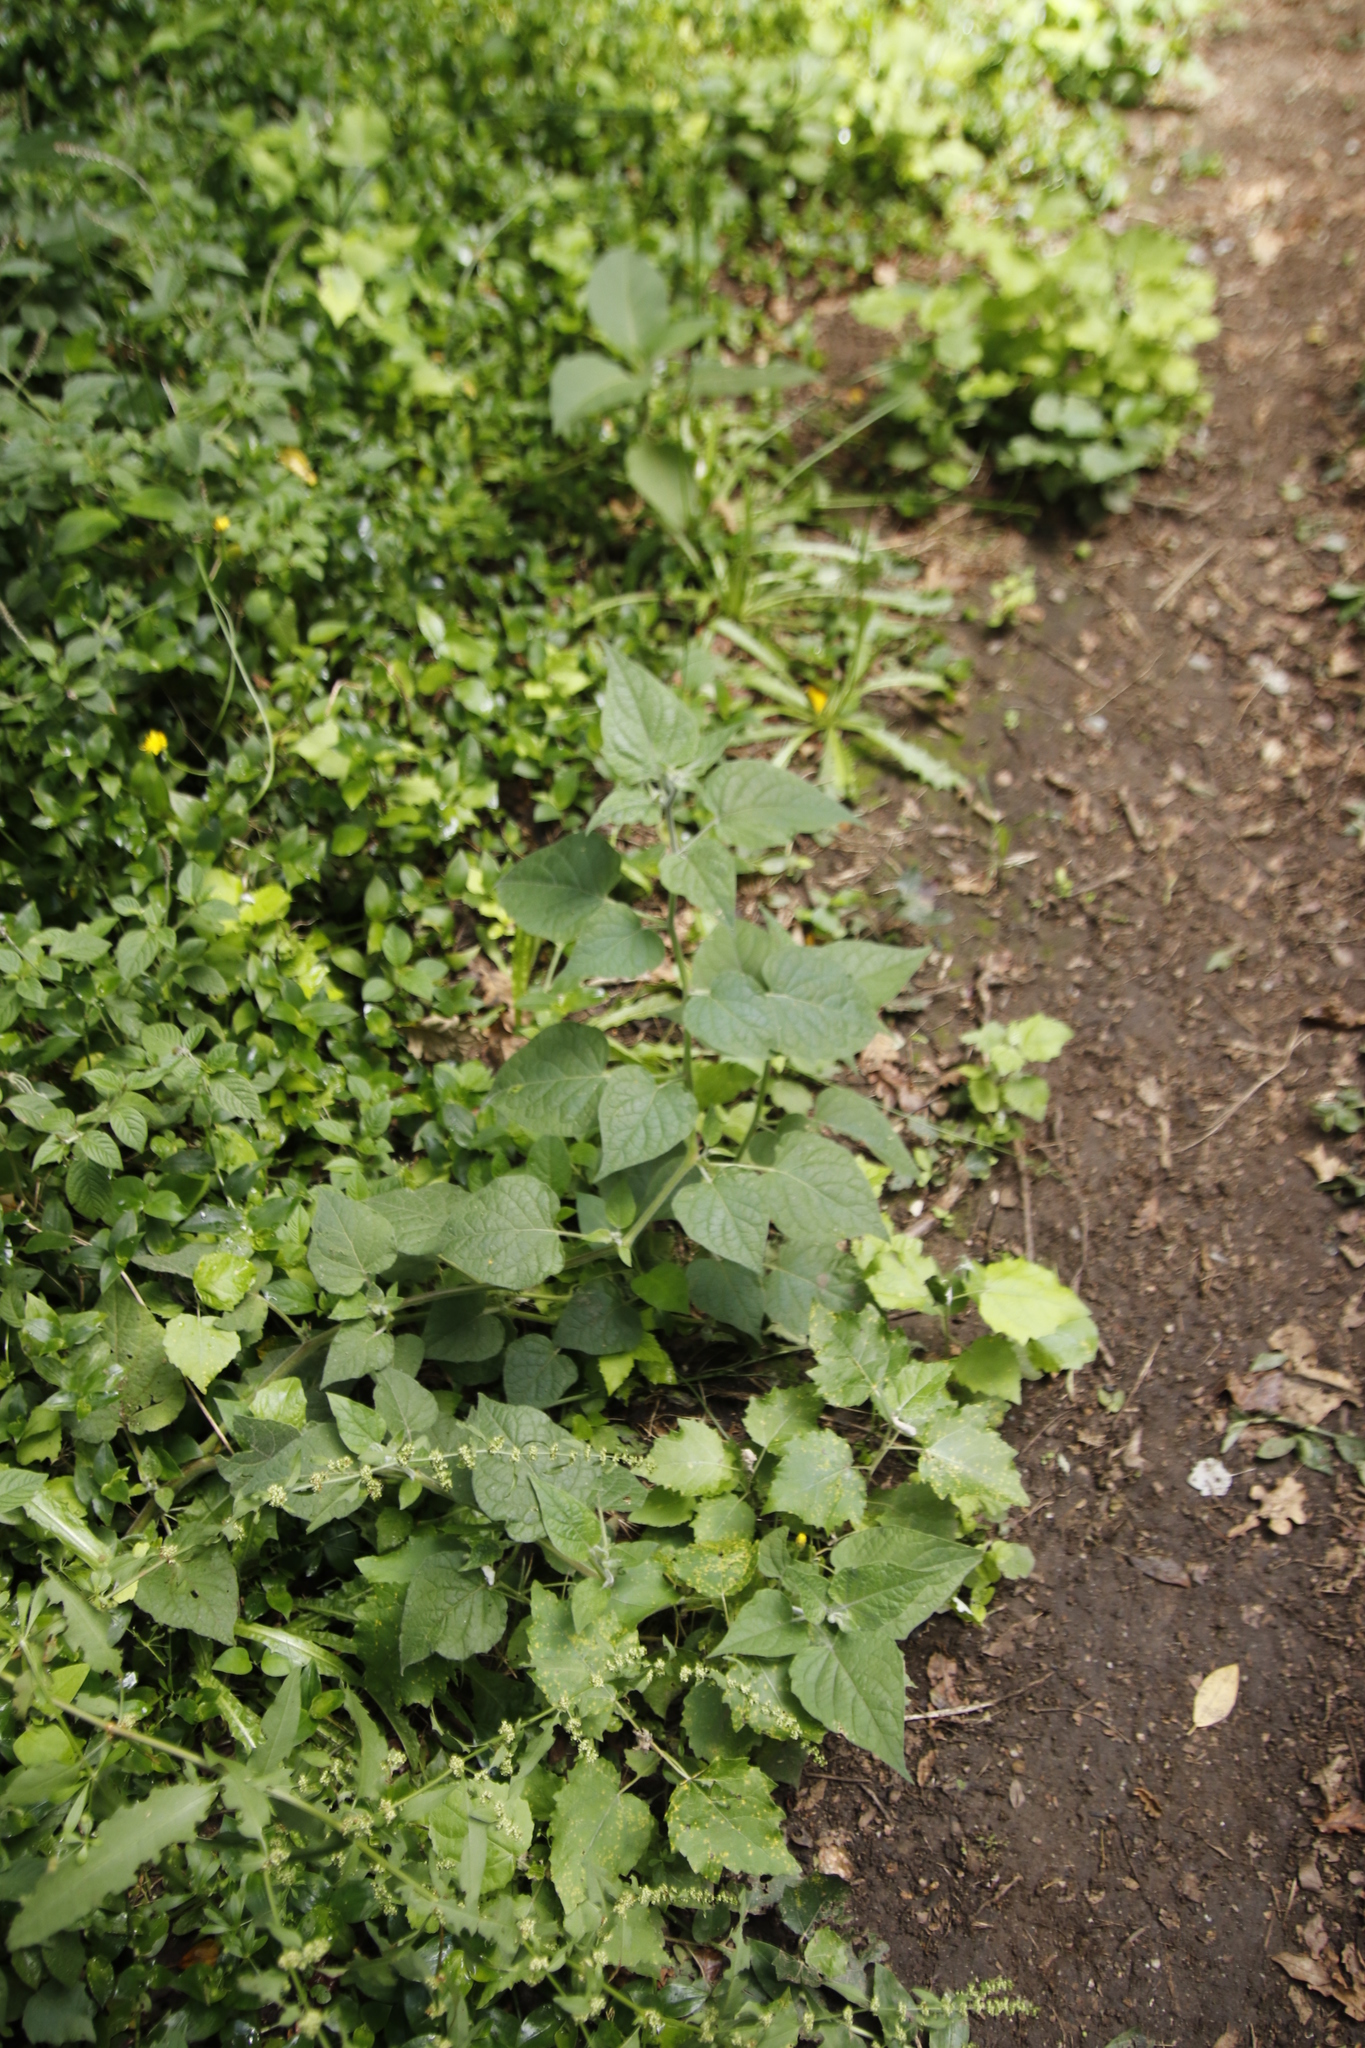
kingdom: Plantae
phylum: Tracheophyta
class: Magnoliopsida
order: Solanales
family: Solanaceae
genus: Physalis
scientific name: Physalis peruviana
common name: Cape-gooseberry
